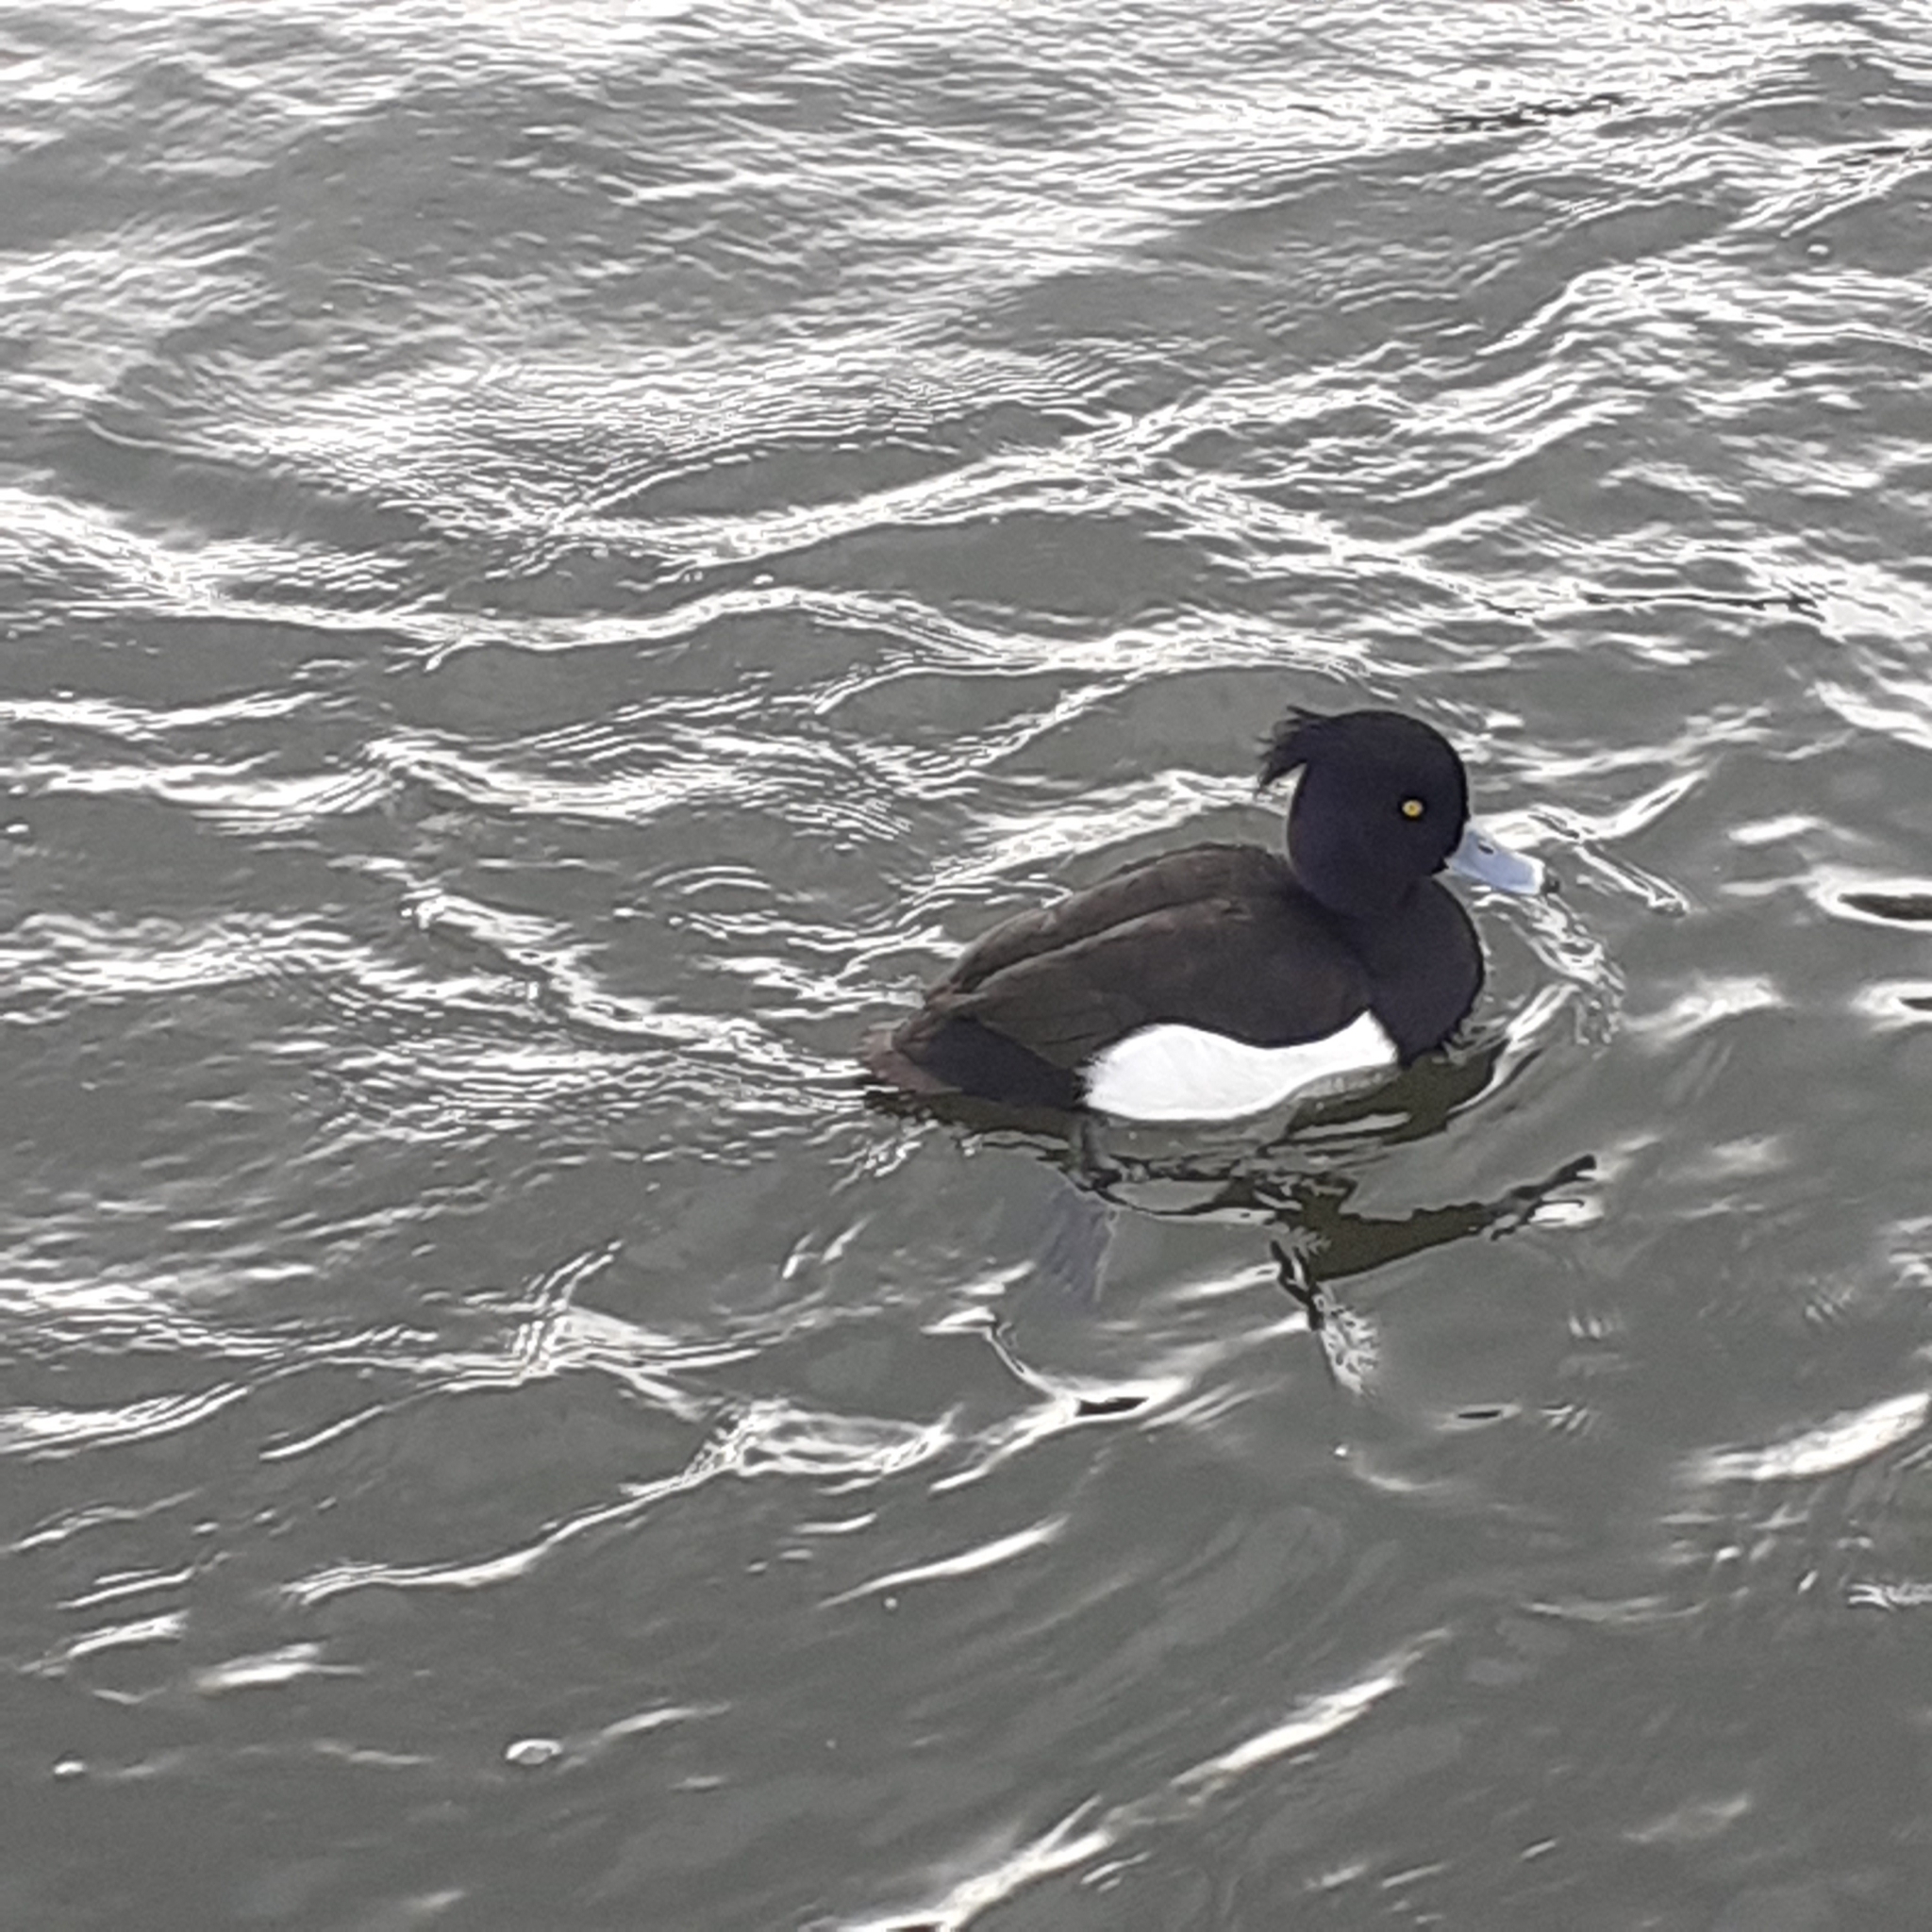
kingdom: Animalia
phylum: Chordata
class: Aves
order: Anseriformes
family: Anatidae
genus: Aythya
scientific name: Aythya fuligula
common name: Tufted duck
